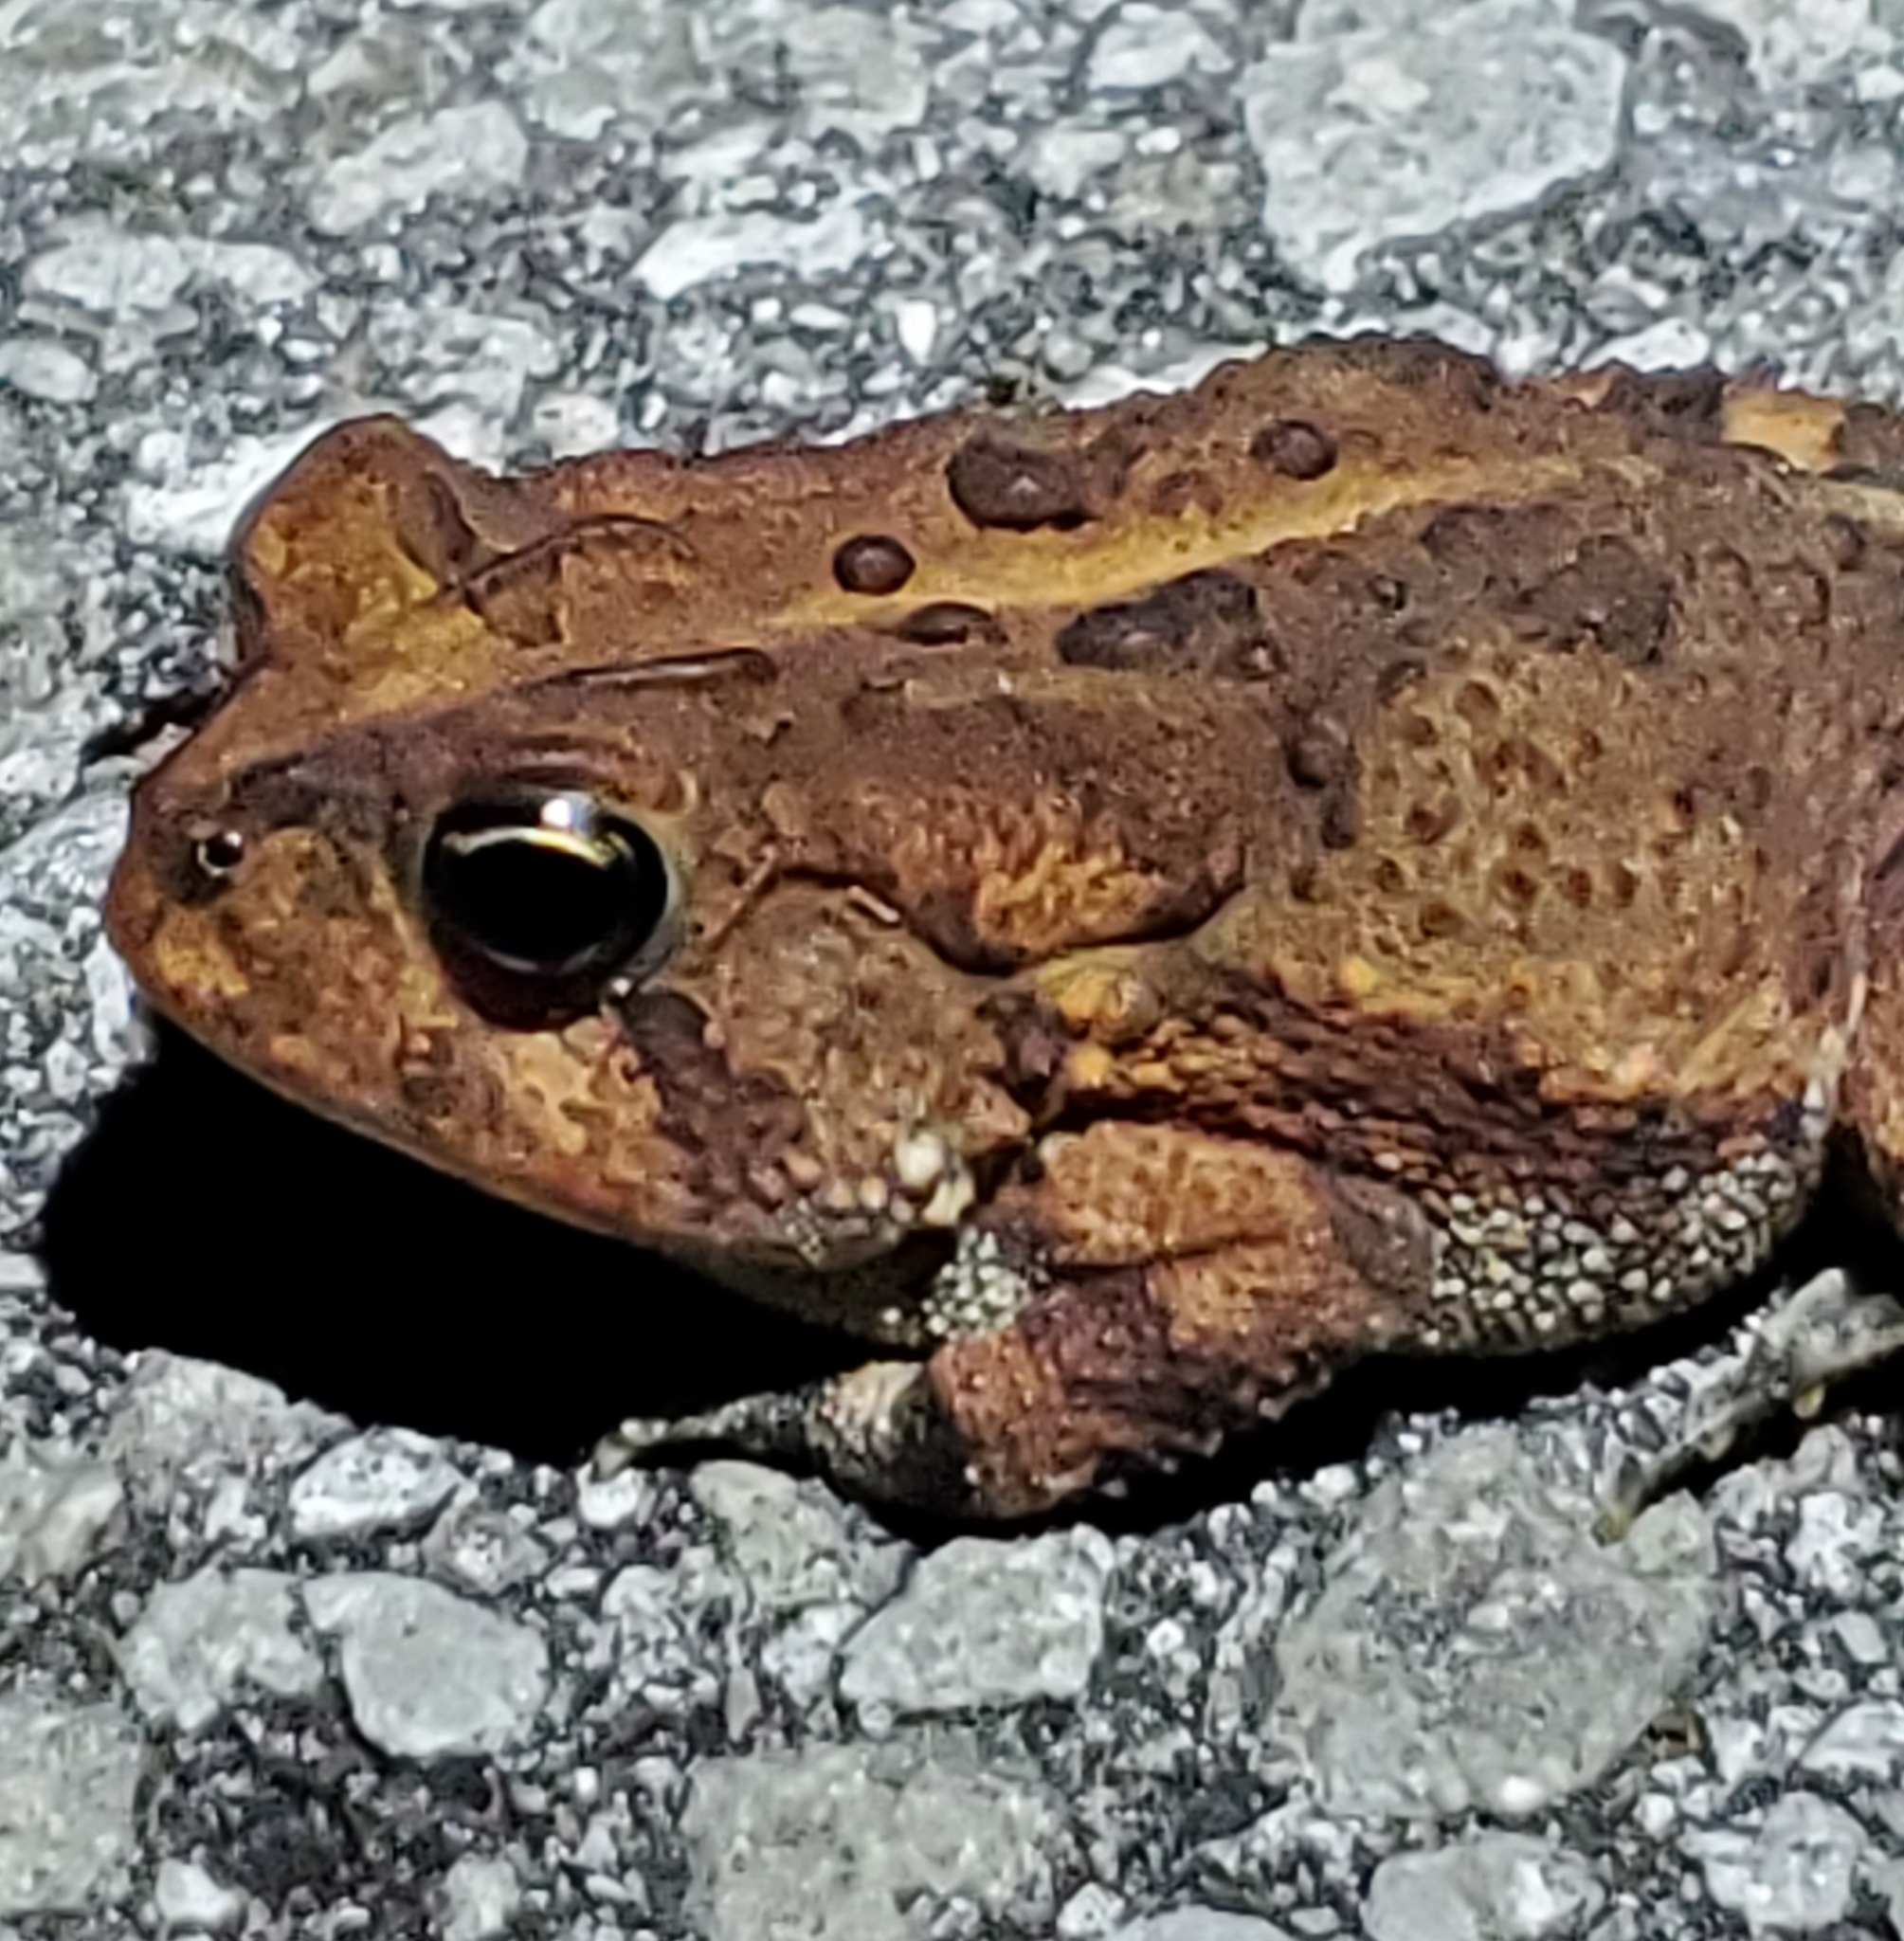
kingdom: Animalia
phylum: Chordata
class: Amphibia
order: Anura
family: Bufonidae
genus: Anaxyrus
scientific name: Anaxyrus terrestris
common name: Southern toad
